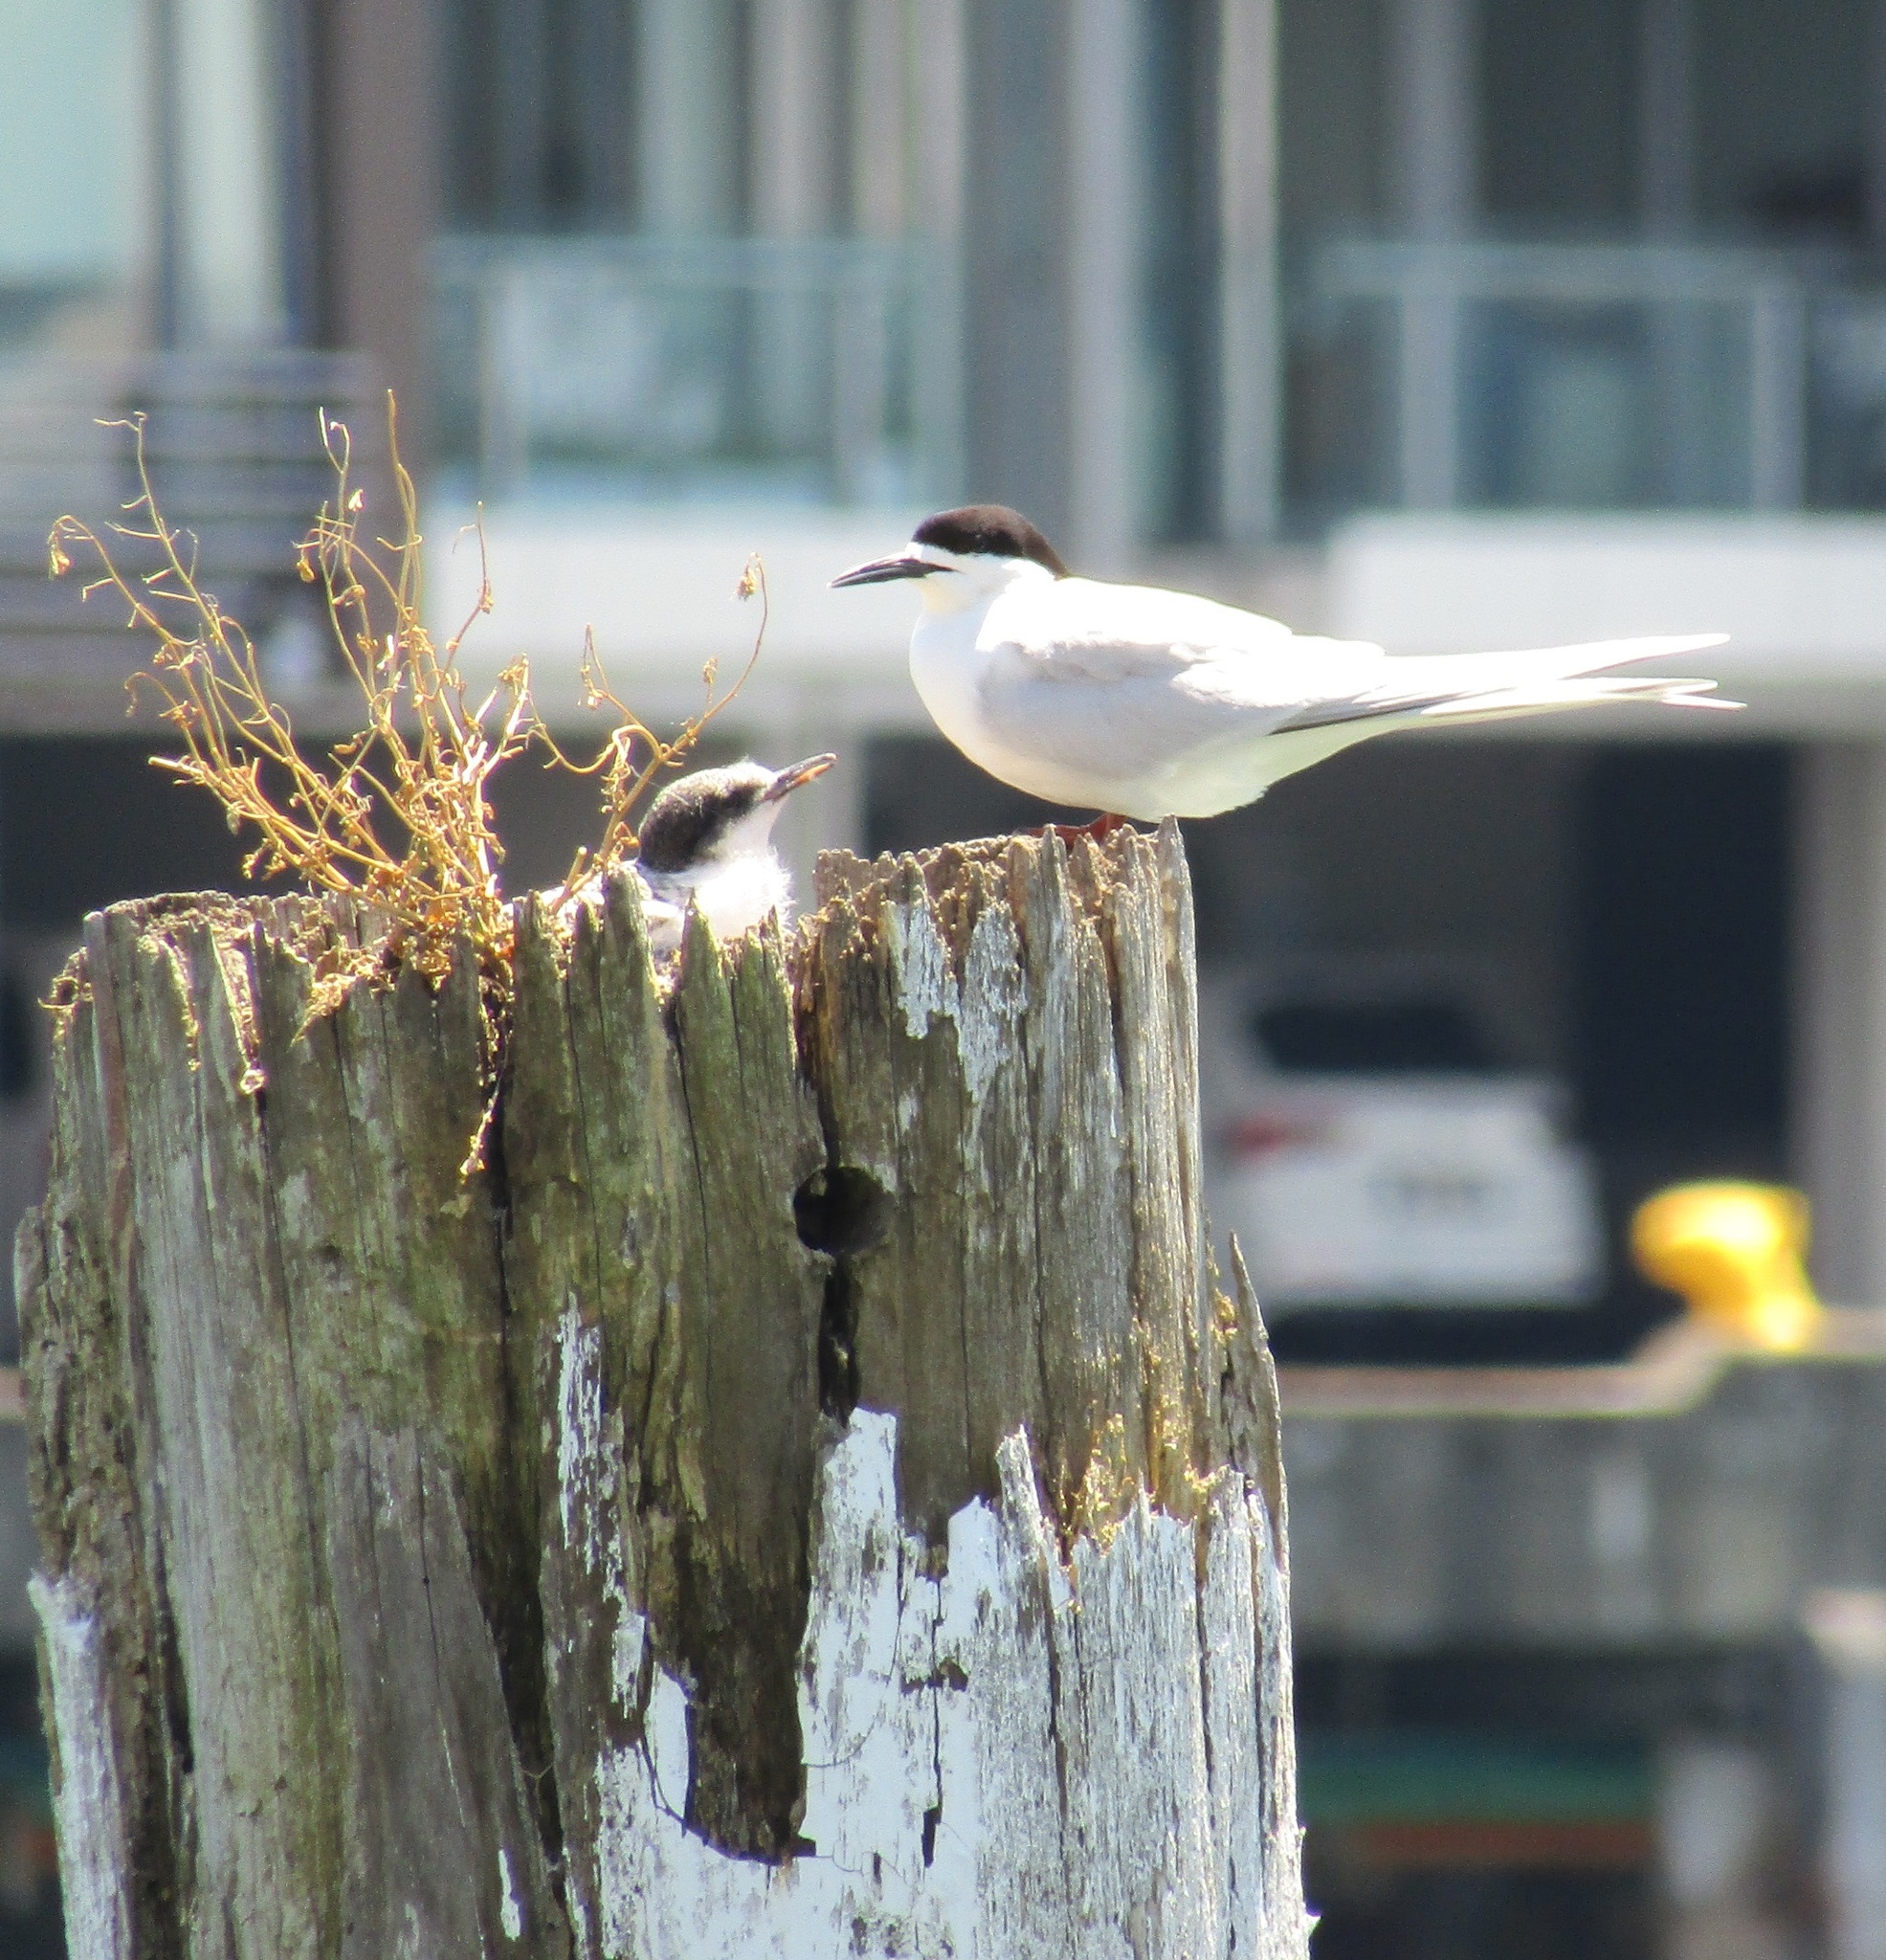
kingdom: Animalia
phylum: Chordata
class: Aves
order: Charadriiformes
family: Laridae
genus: Sterna
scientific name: Sterna striata
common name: White-fronted tern
